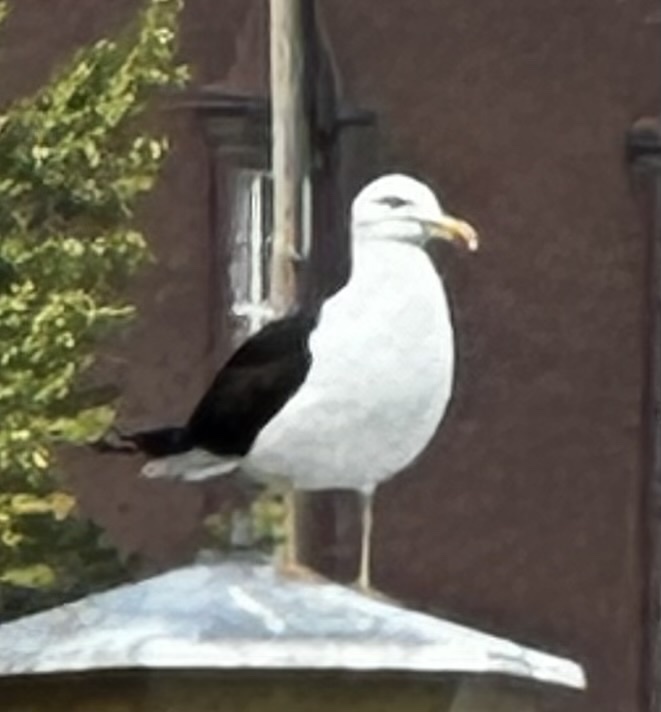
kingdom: Animalia
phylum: Chordata
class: Aves
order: Charadriiformes
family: Laridae
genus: Larus
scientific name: Larus fuscus
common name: Lesser black-backed gull
